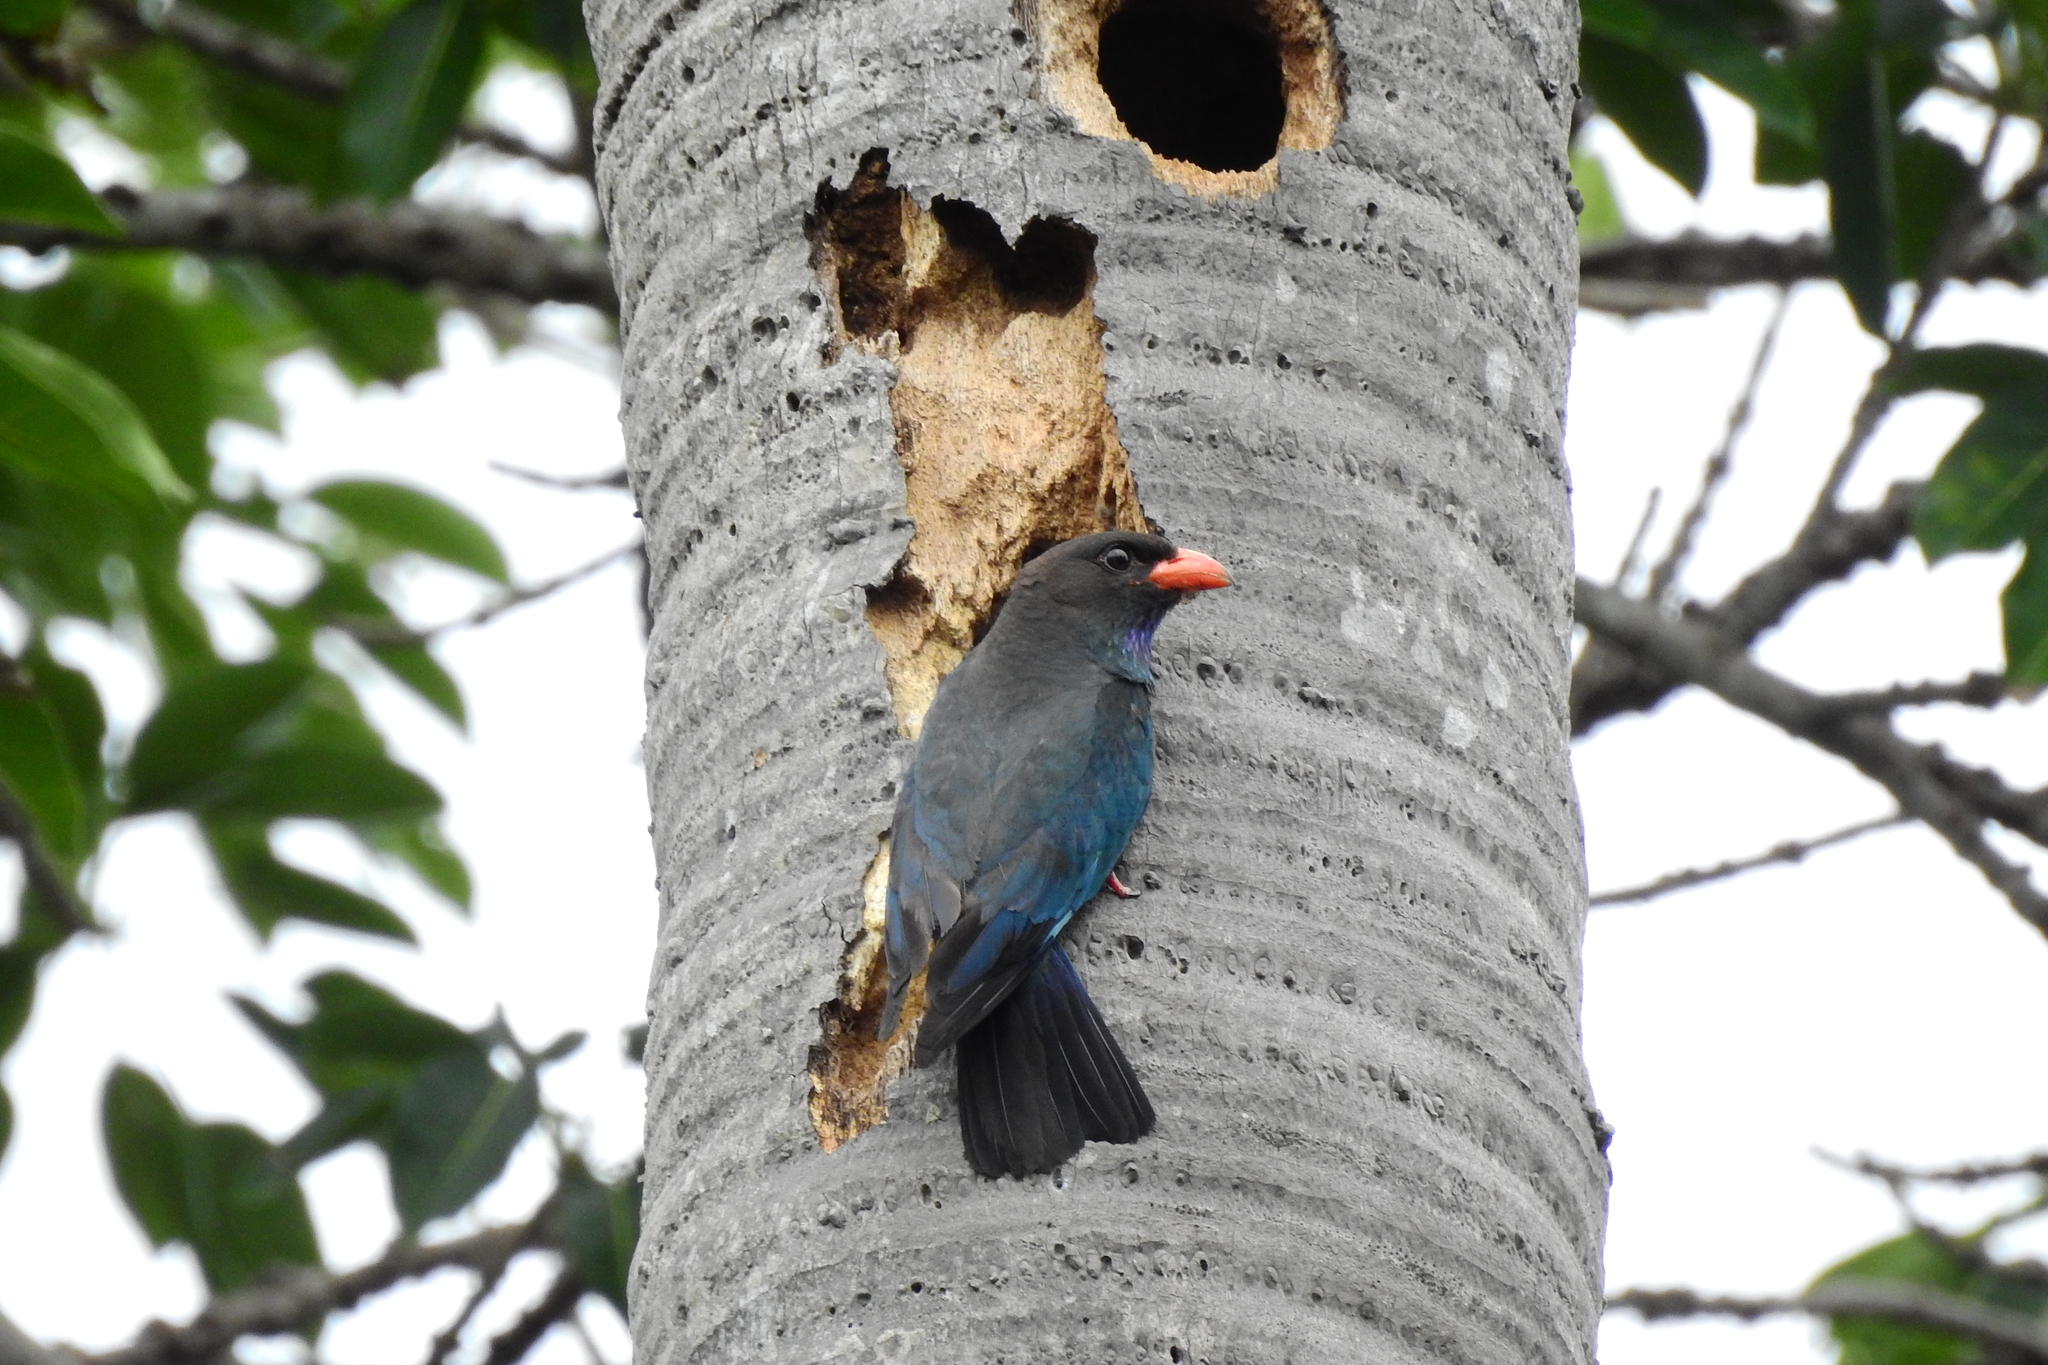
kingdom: Animalia
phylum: Chordata
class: Aves
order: Coraciiformes
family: Coraciidae
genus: Eurystomus
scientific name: Eurystomus orientalis
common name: Oriental dollarbird
